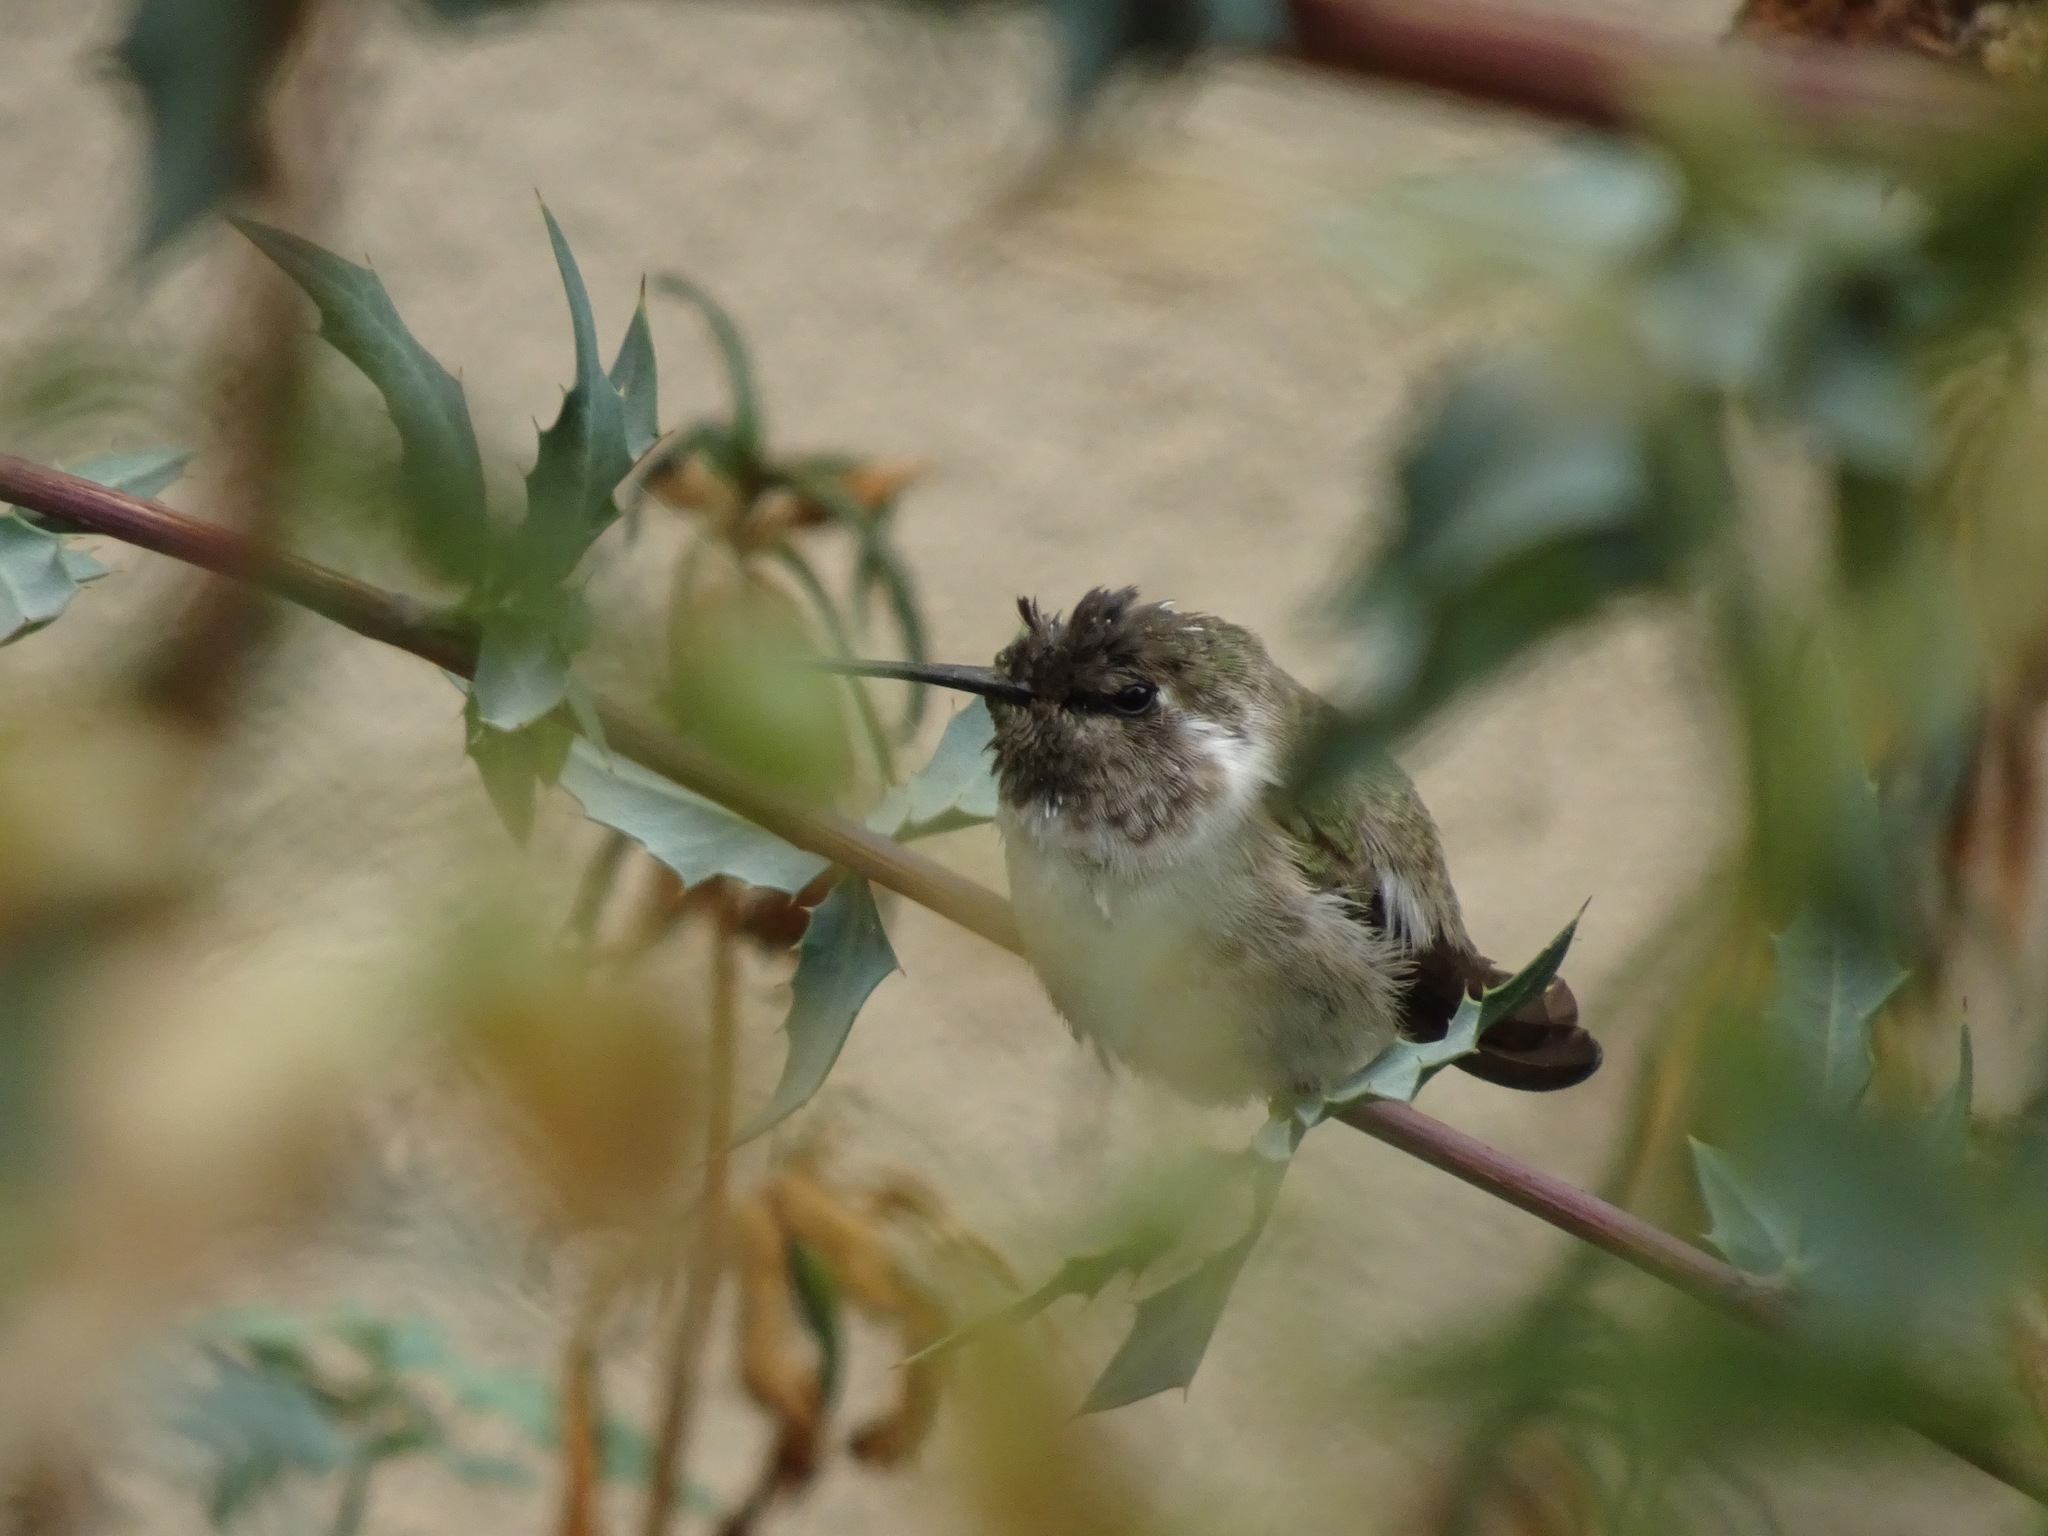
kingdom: Animalia
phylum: Chordata
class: Aves
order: Apodiformes
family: Trochilidae
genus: Calypte
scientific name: Calypte costae
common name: Costa's hummingbird
